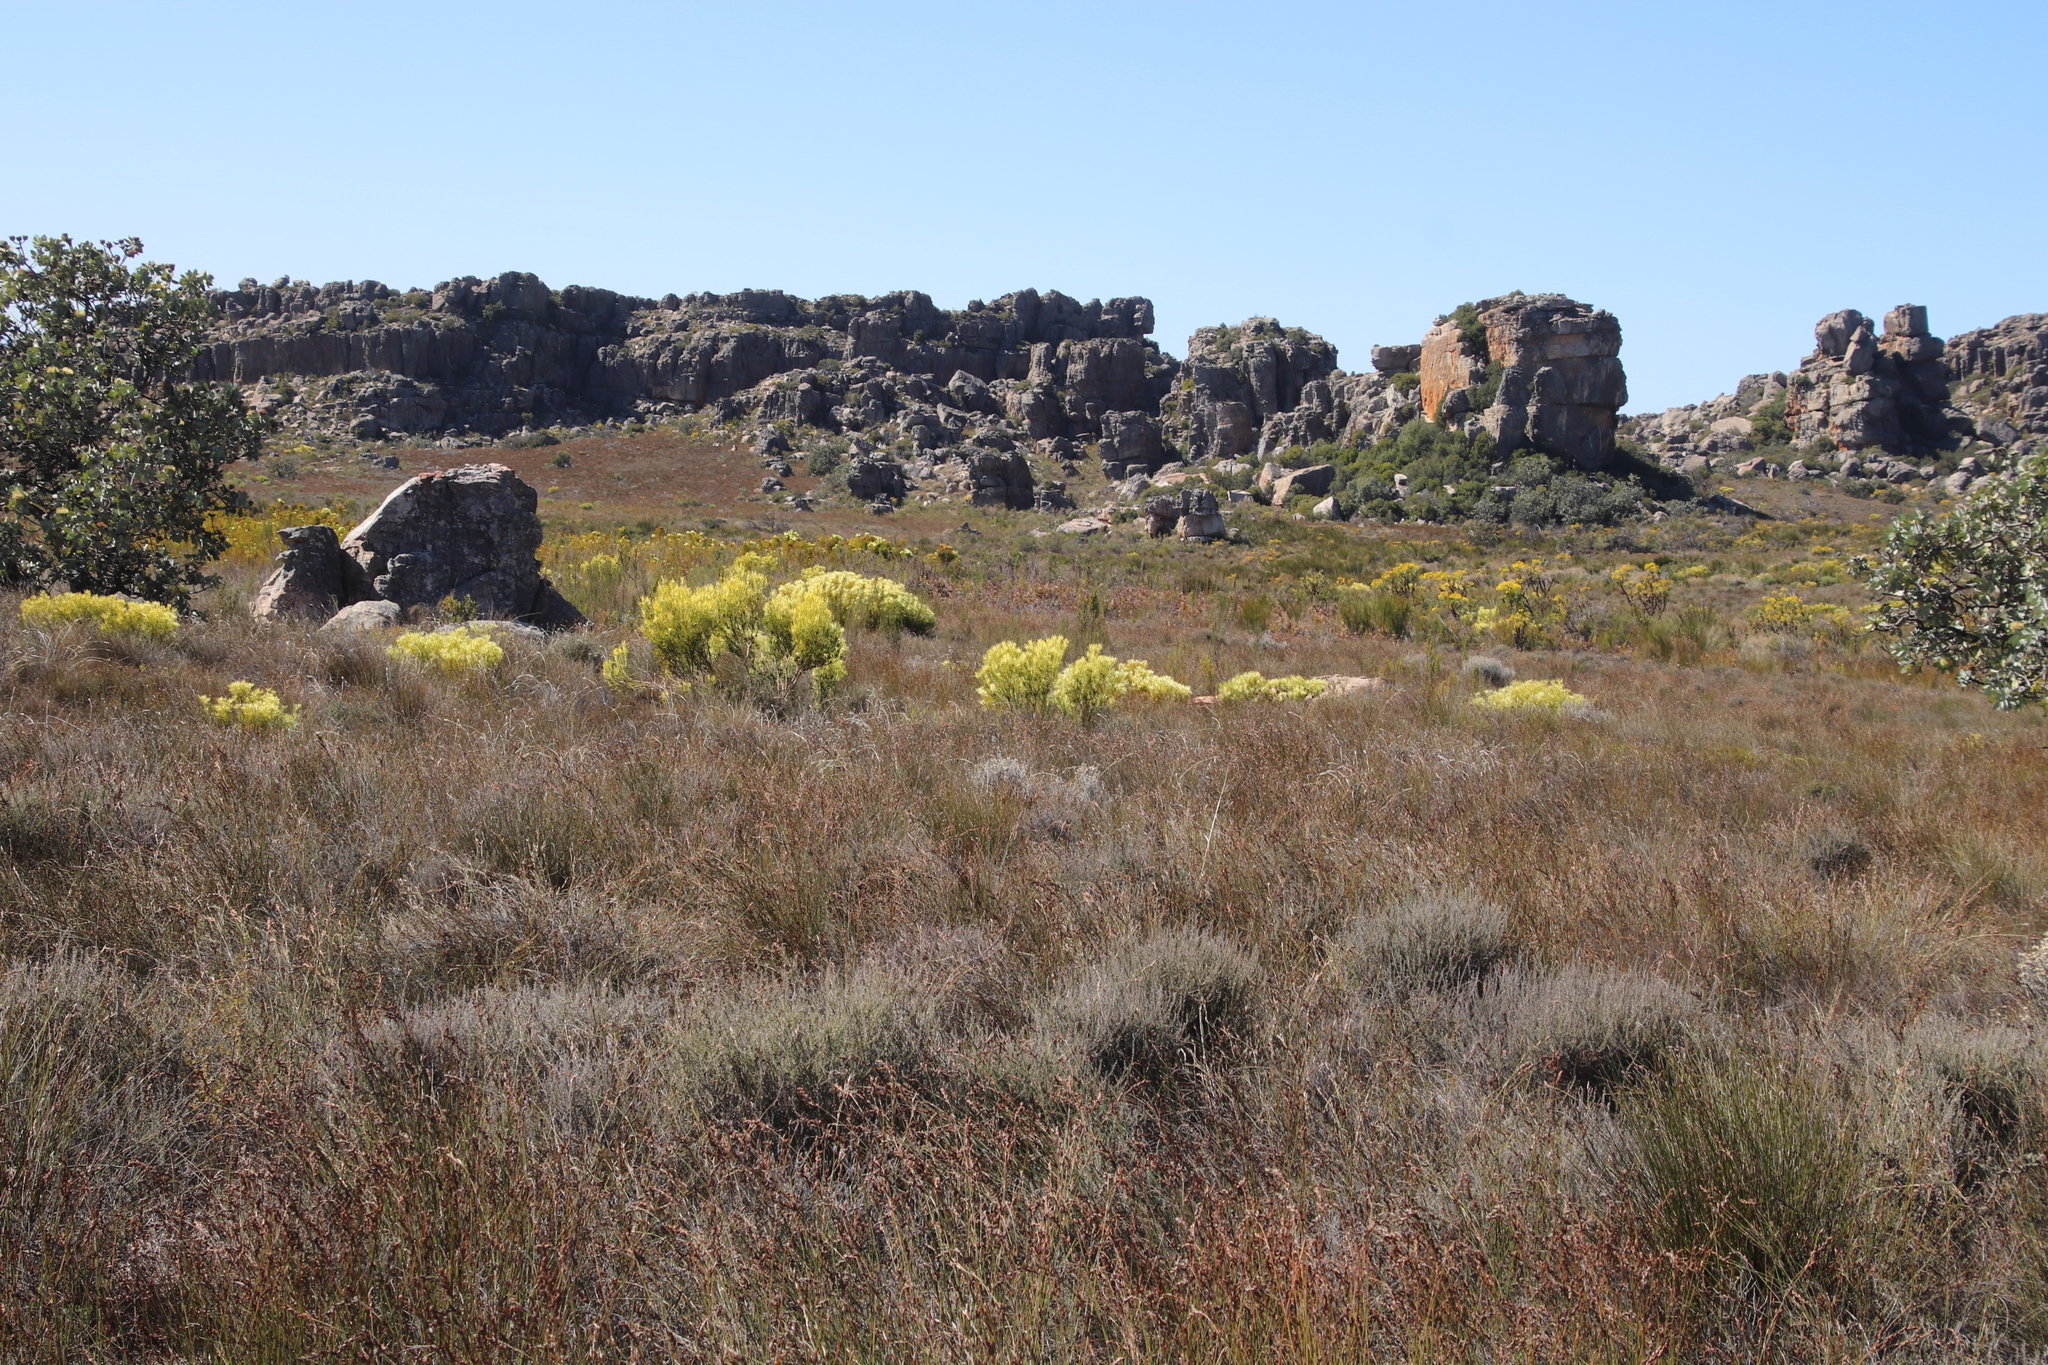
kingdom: Plantae
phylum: Tracheophyta
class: Magnoliopsida
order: Proteales
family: Proteaceae
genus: Leucadendron
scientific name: Leucadendron salignum
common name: Common sunshine conebush
